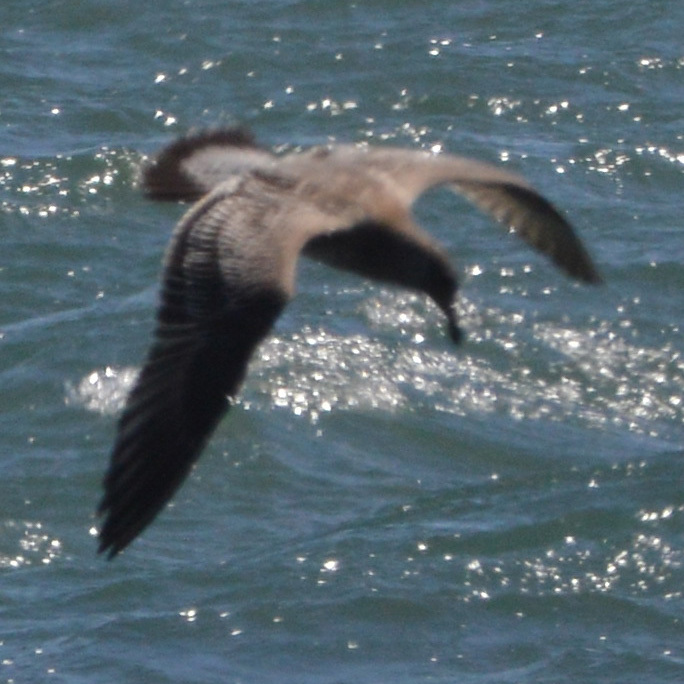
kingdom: Animalia
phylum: Chordata
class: Aves
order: Charadriiformes
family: Laridae
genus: Larus
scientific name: Larus heermanni
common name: Heermann's gull
